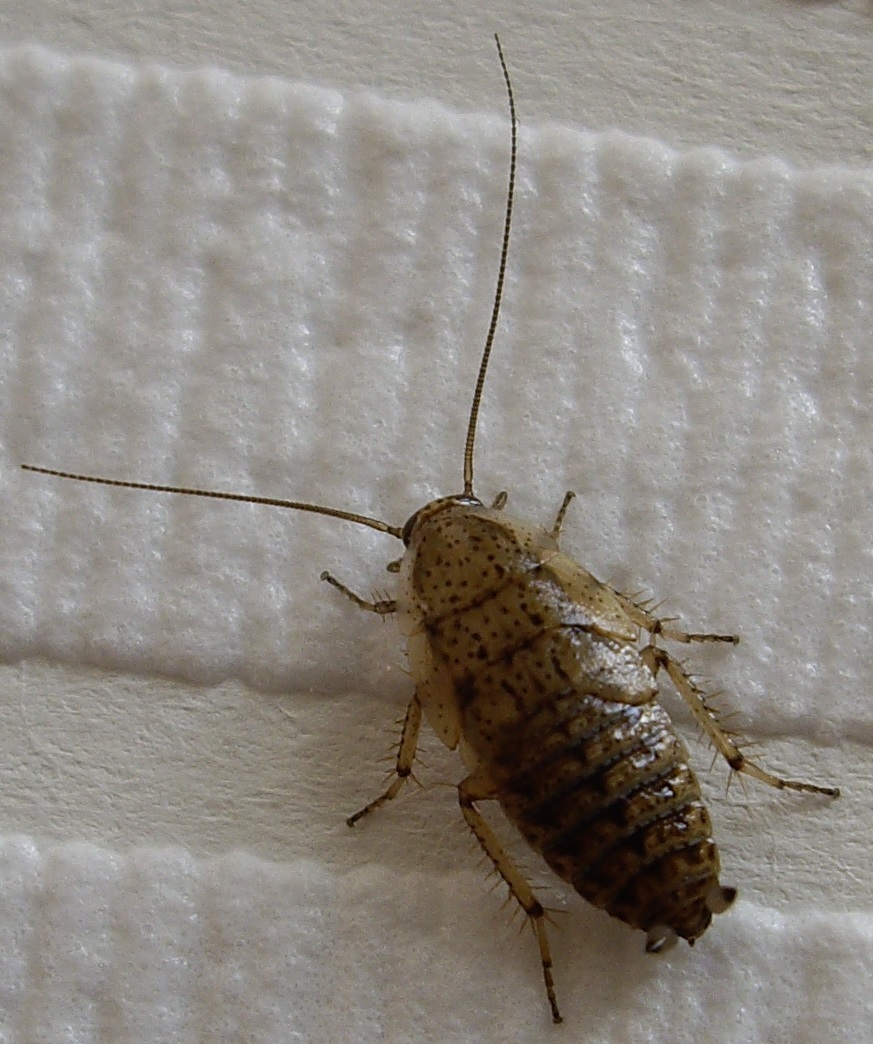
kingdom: Animalia
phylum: Arthropoda
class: Insecta
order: Blattodea
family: Ectobiidae
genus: Ectobius
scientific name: Ectobius pallidus
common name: Tawny cockroach
